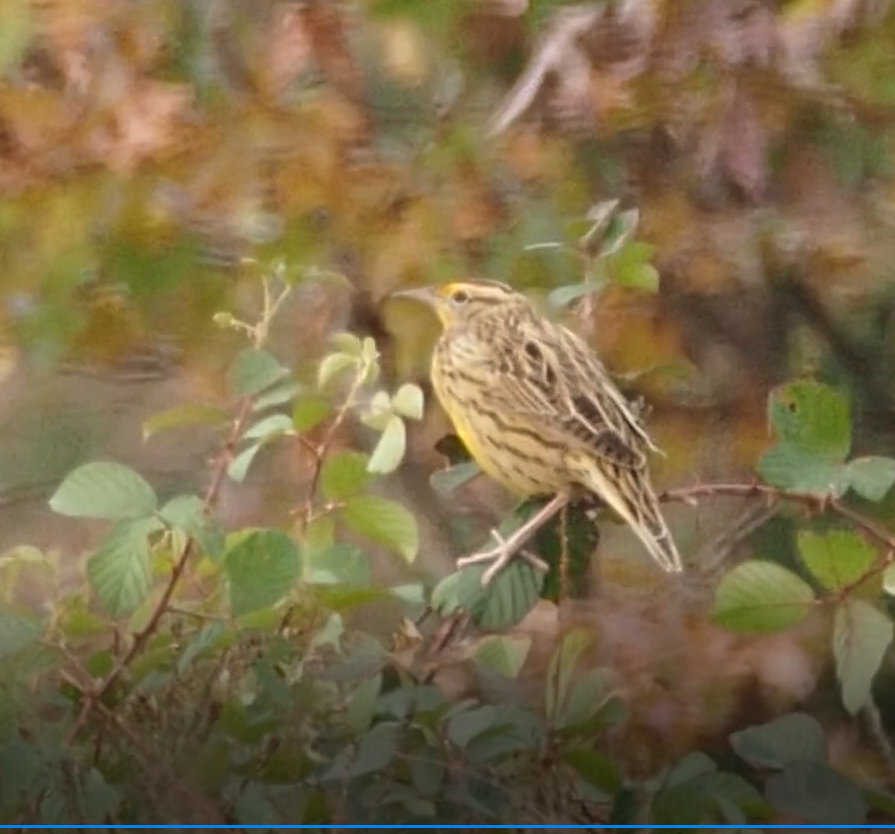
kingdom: Animalia
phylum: Chordata
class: Aves
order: Passeriformes
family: Icteridae
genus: Sturnella
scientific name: Sturnella magna
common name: Eastern meadowlark
